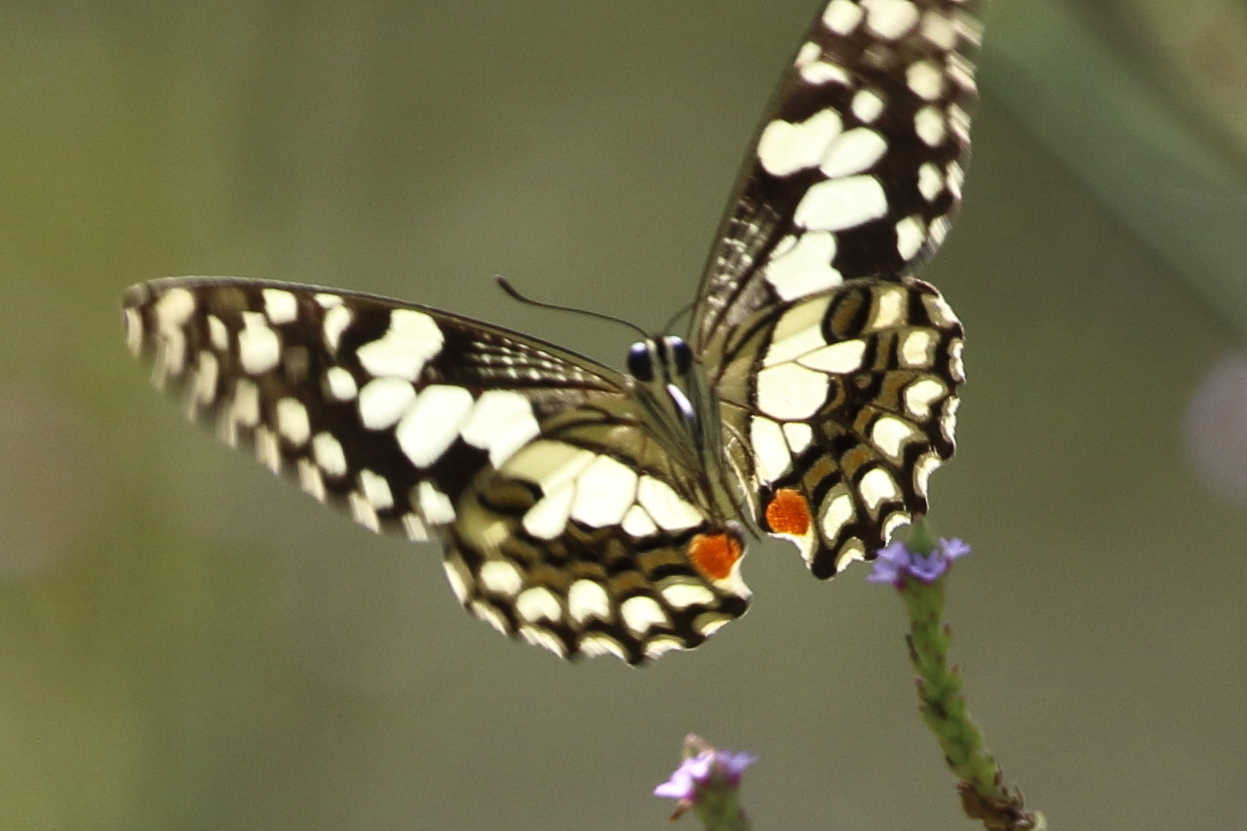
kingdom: Animalia
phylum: Arthropoda
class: Insecta
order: Lepidoptera
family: Papilionidae
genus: Papilio
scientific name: Papilio demoleus
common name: Lime butterfly
